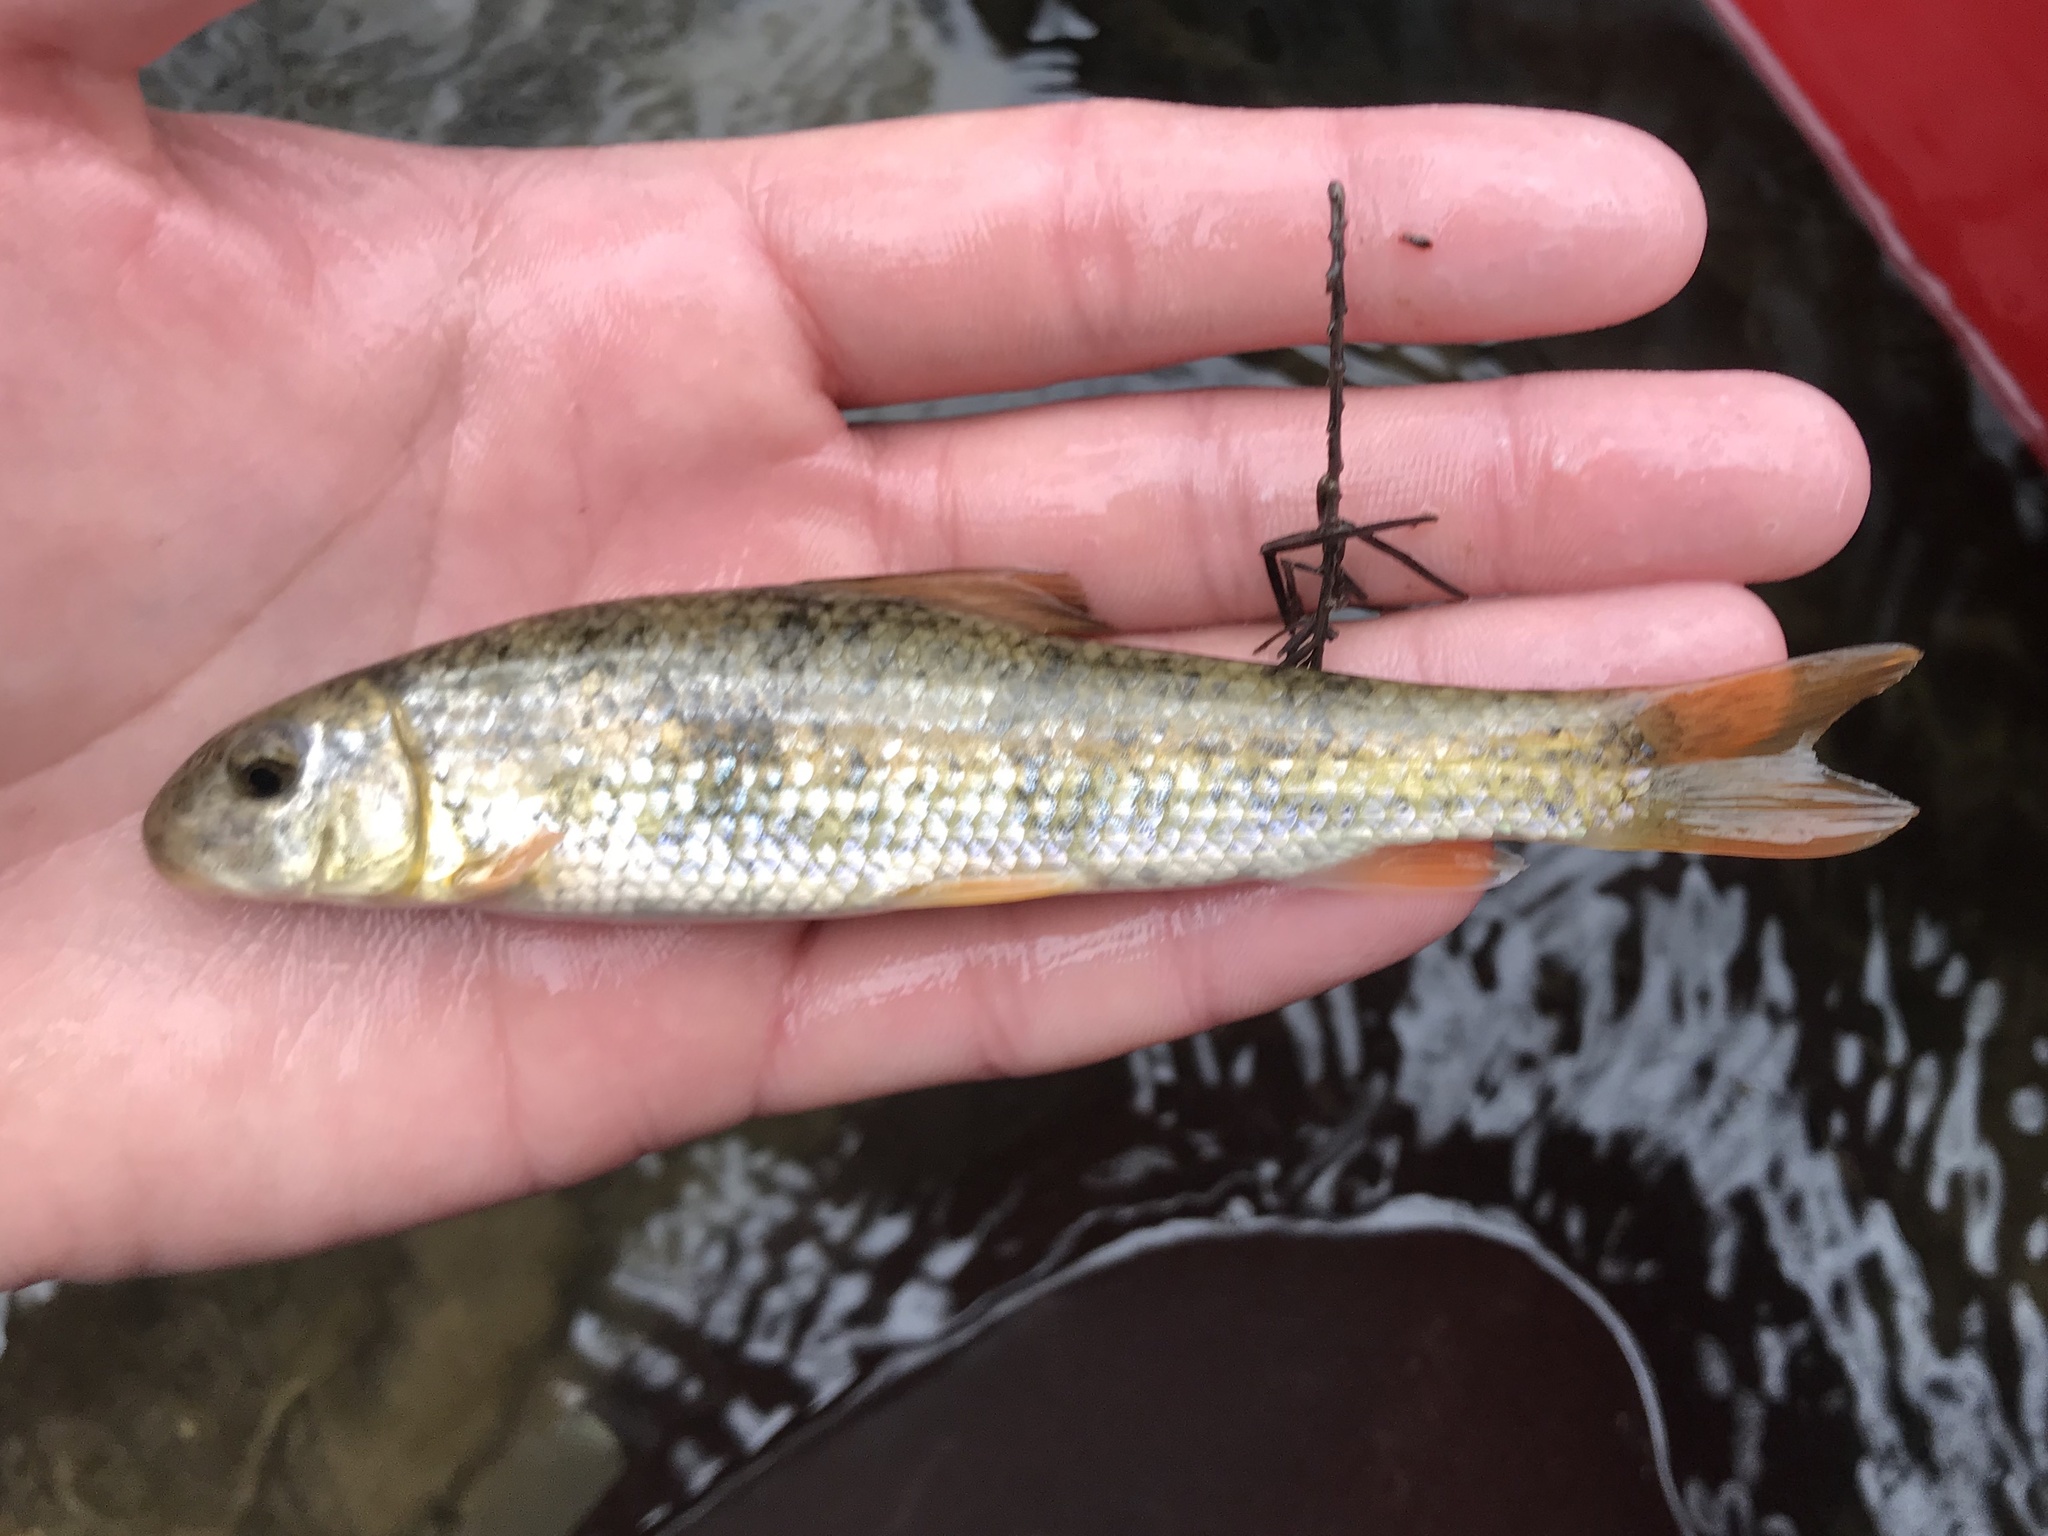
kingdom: Animalia
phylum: Chordata
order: Cypriniformes
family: Catostomidae
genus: Moxostoma
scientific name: Moxostoma congestum
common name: Gray redhorse
